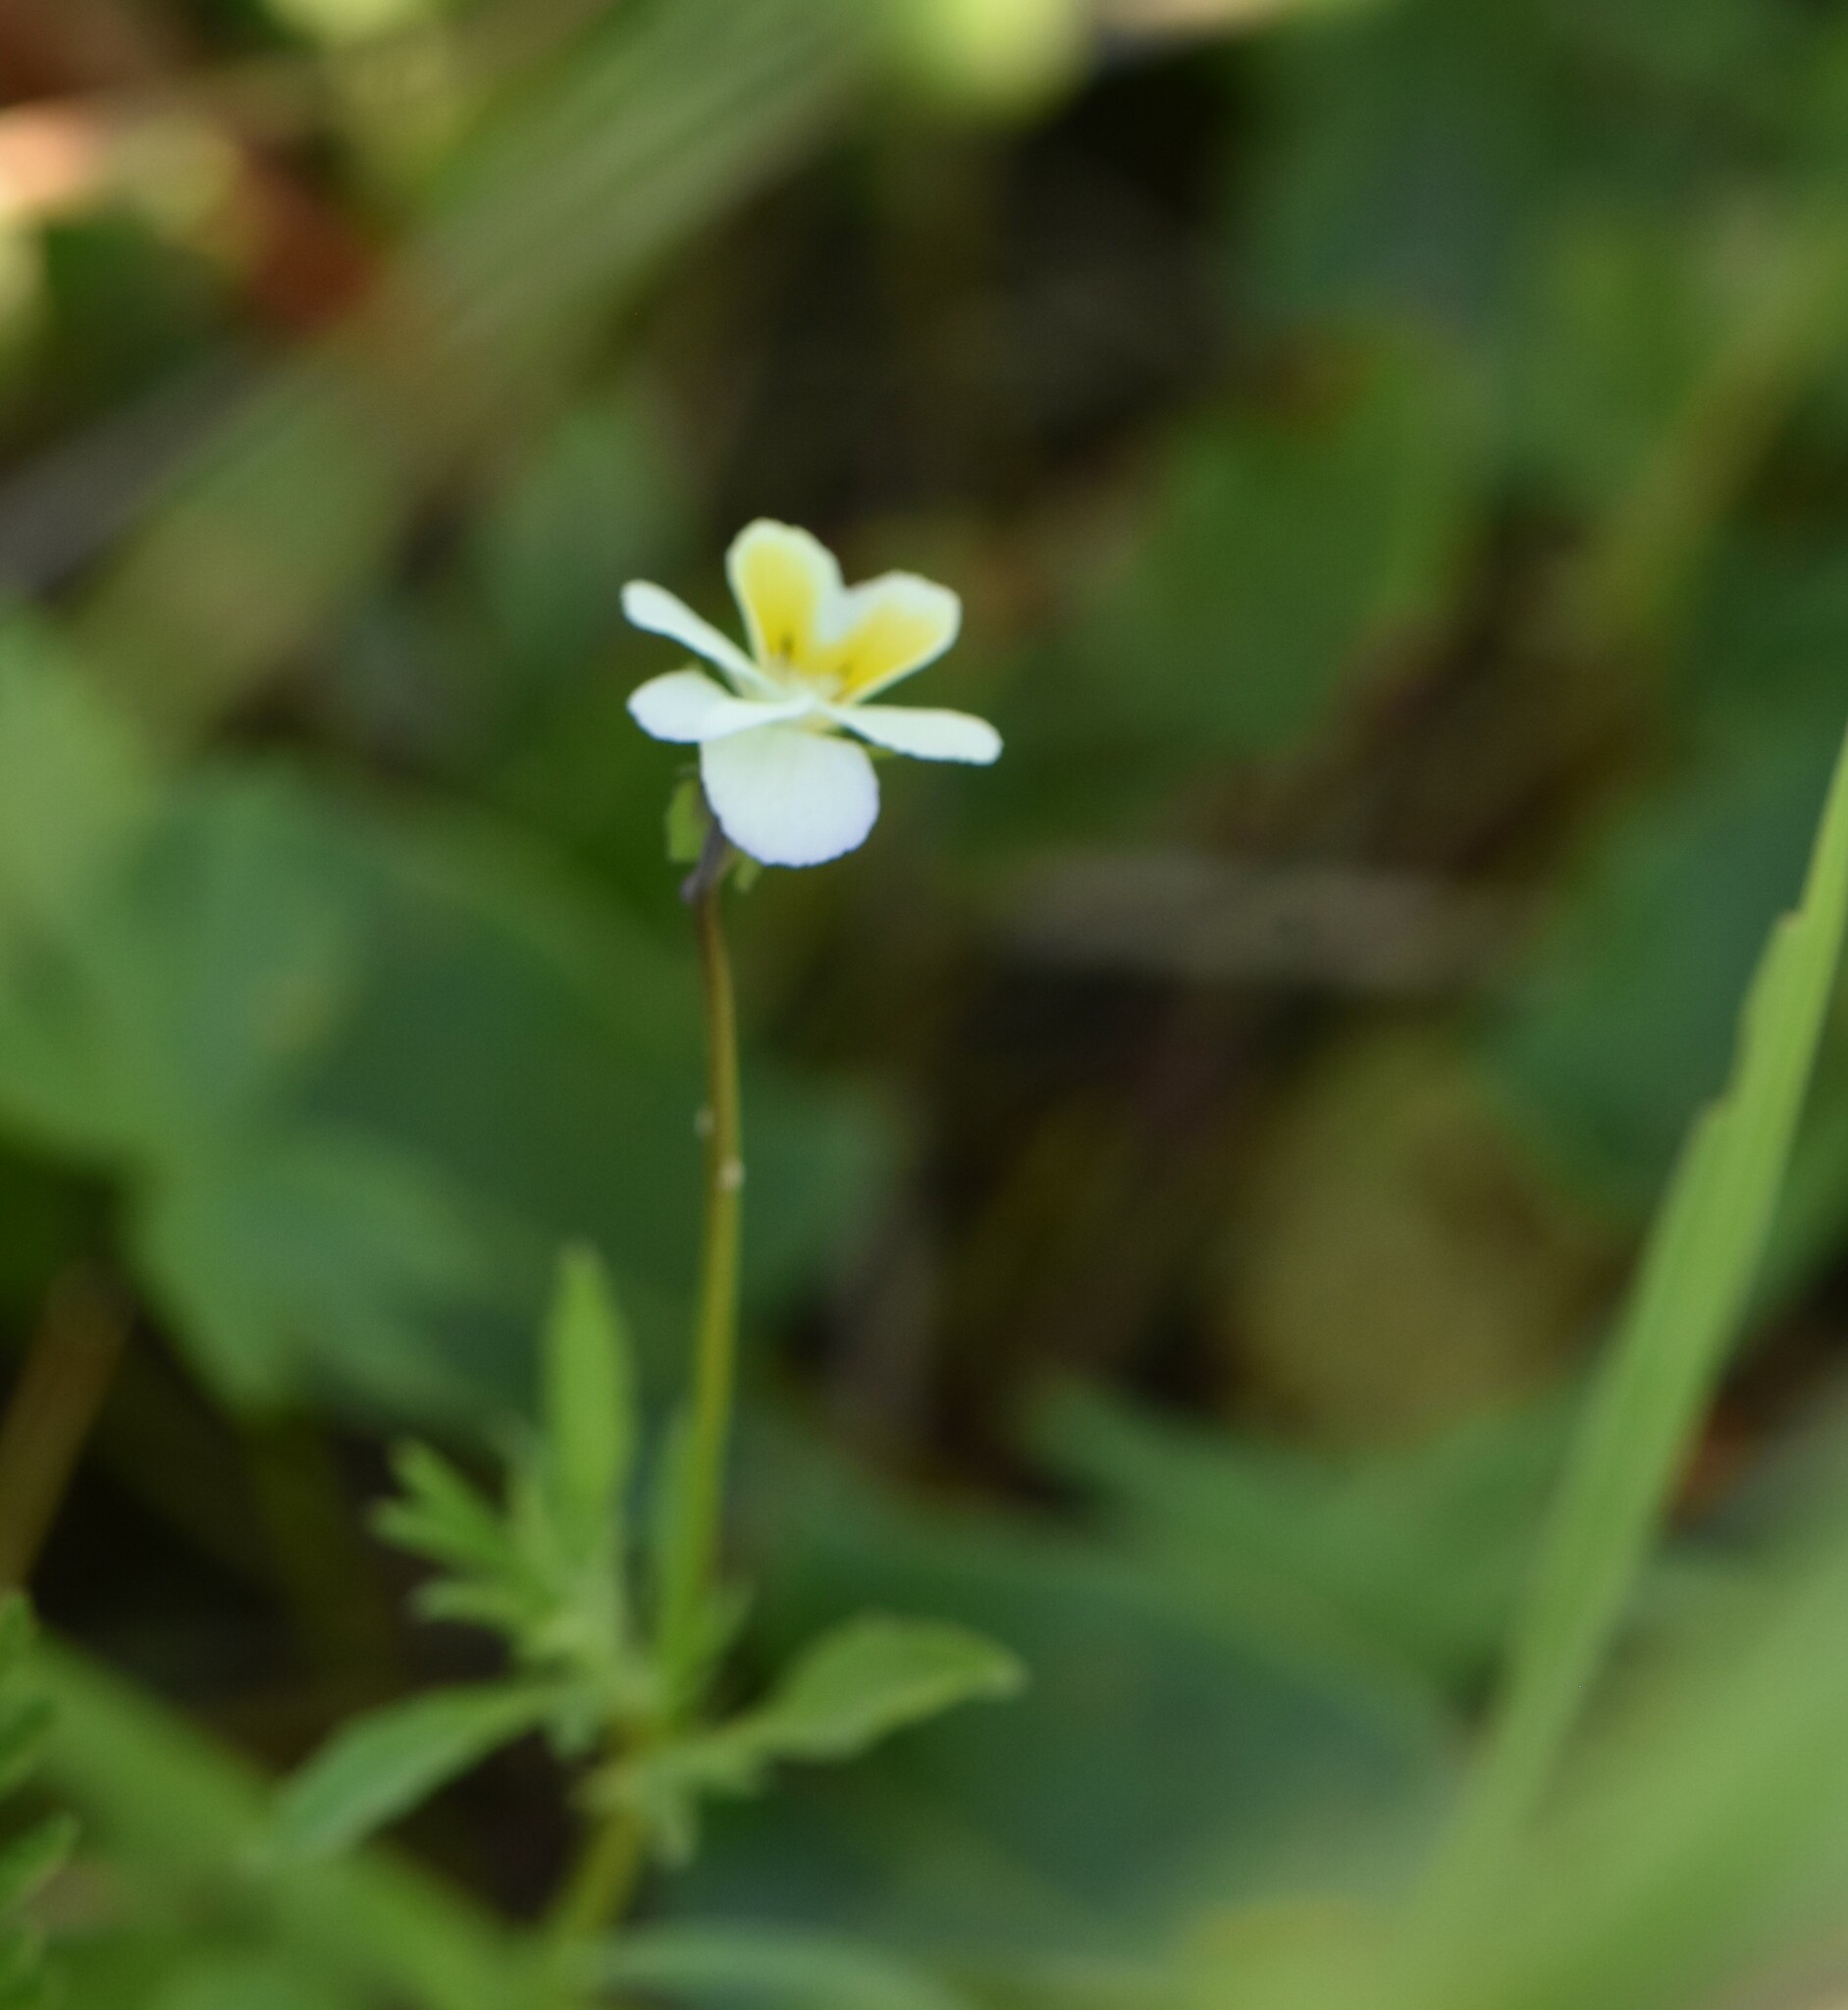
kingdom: Plantae
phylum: Tracheophyta
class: Magnoliopsida
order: Malpighiales
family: Violaceae
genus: Viola
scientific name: Viola arvensis
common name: Field pansy
